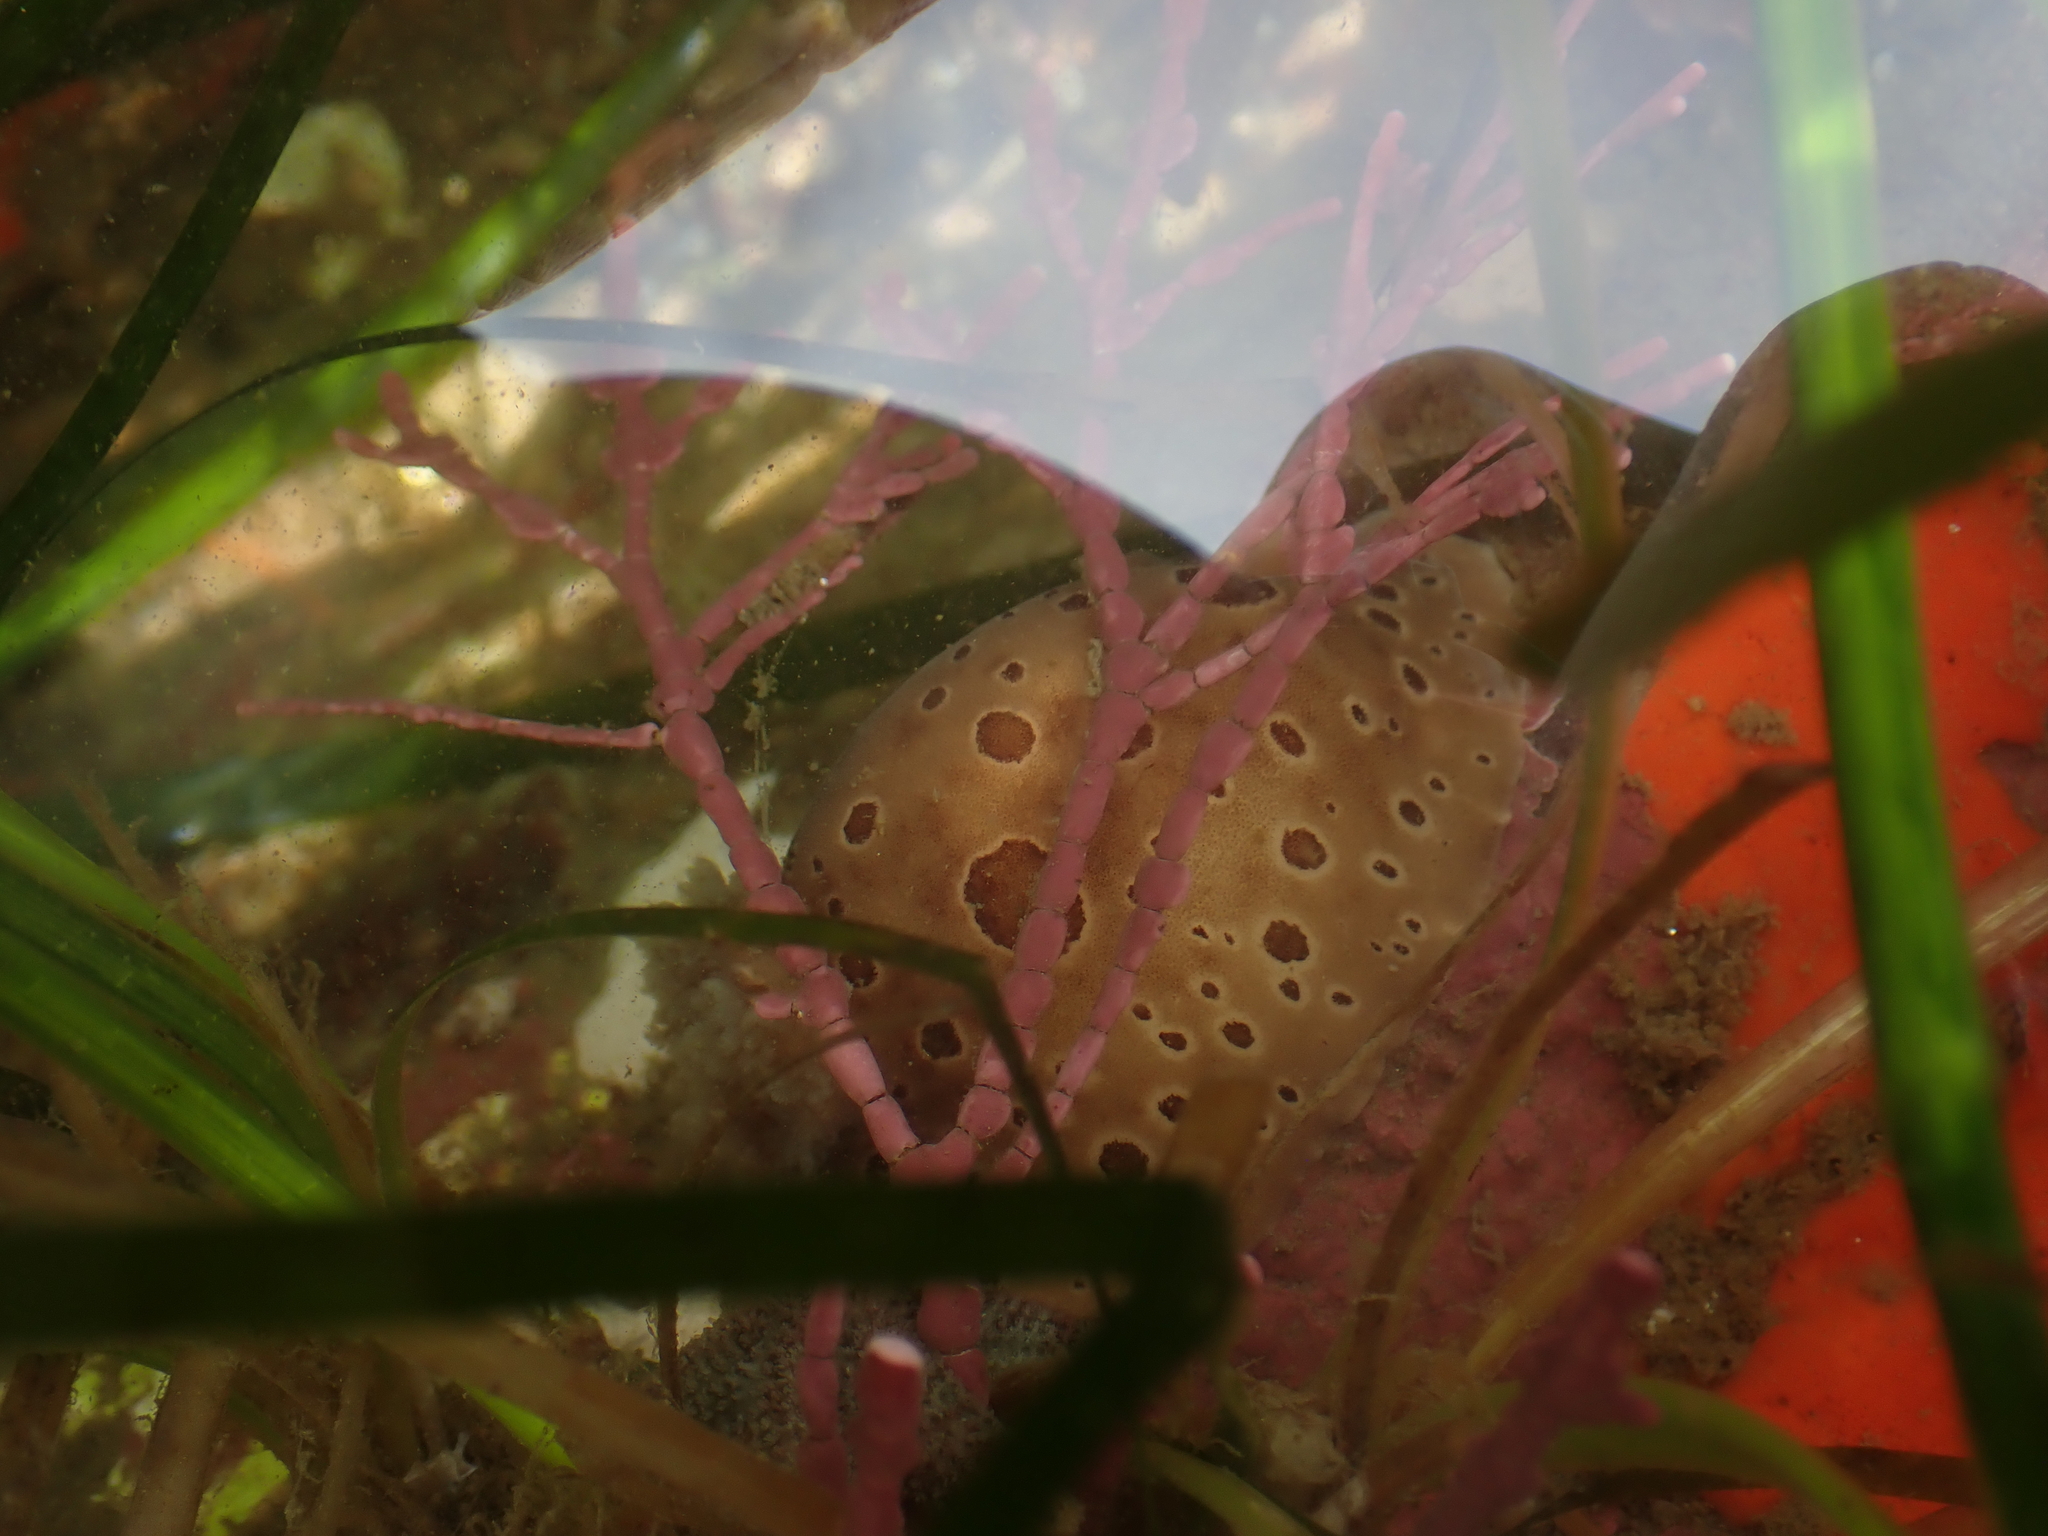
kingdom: Animalia
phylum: Mollusca
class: Gastropoda
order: Nudibranchia
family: Discodorididae
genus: Diaulula
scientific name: Diaulula odonoghuei
